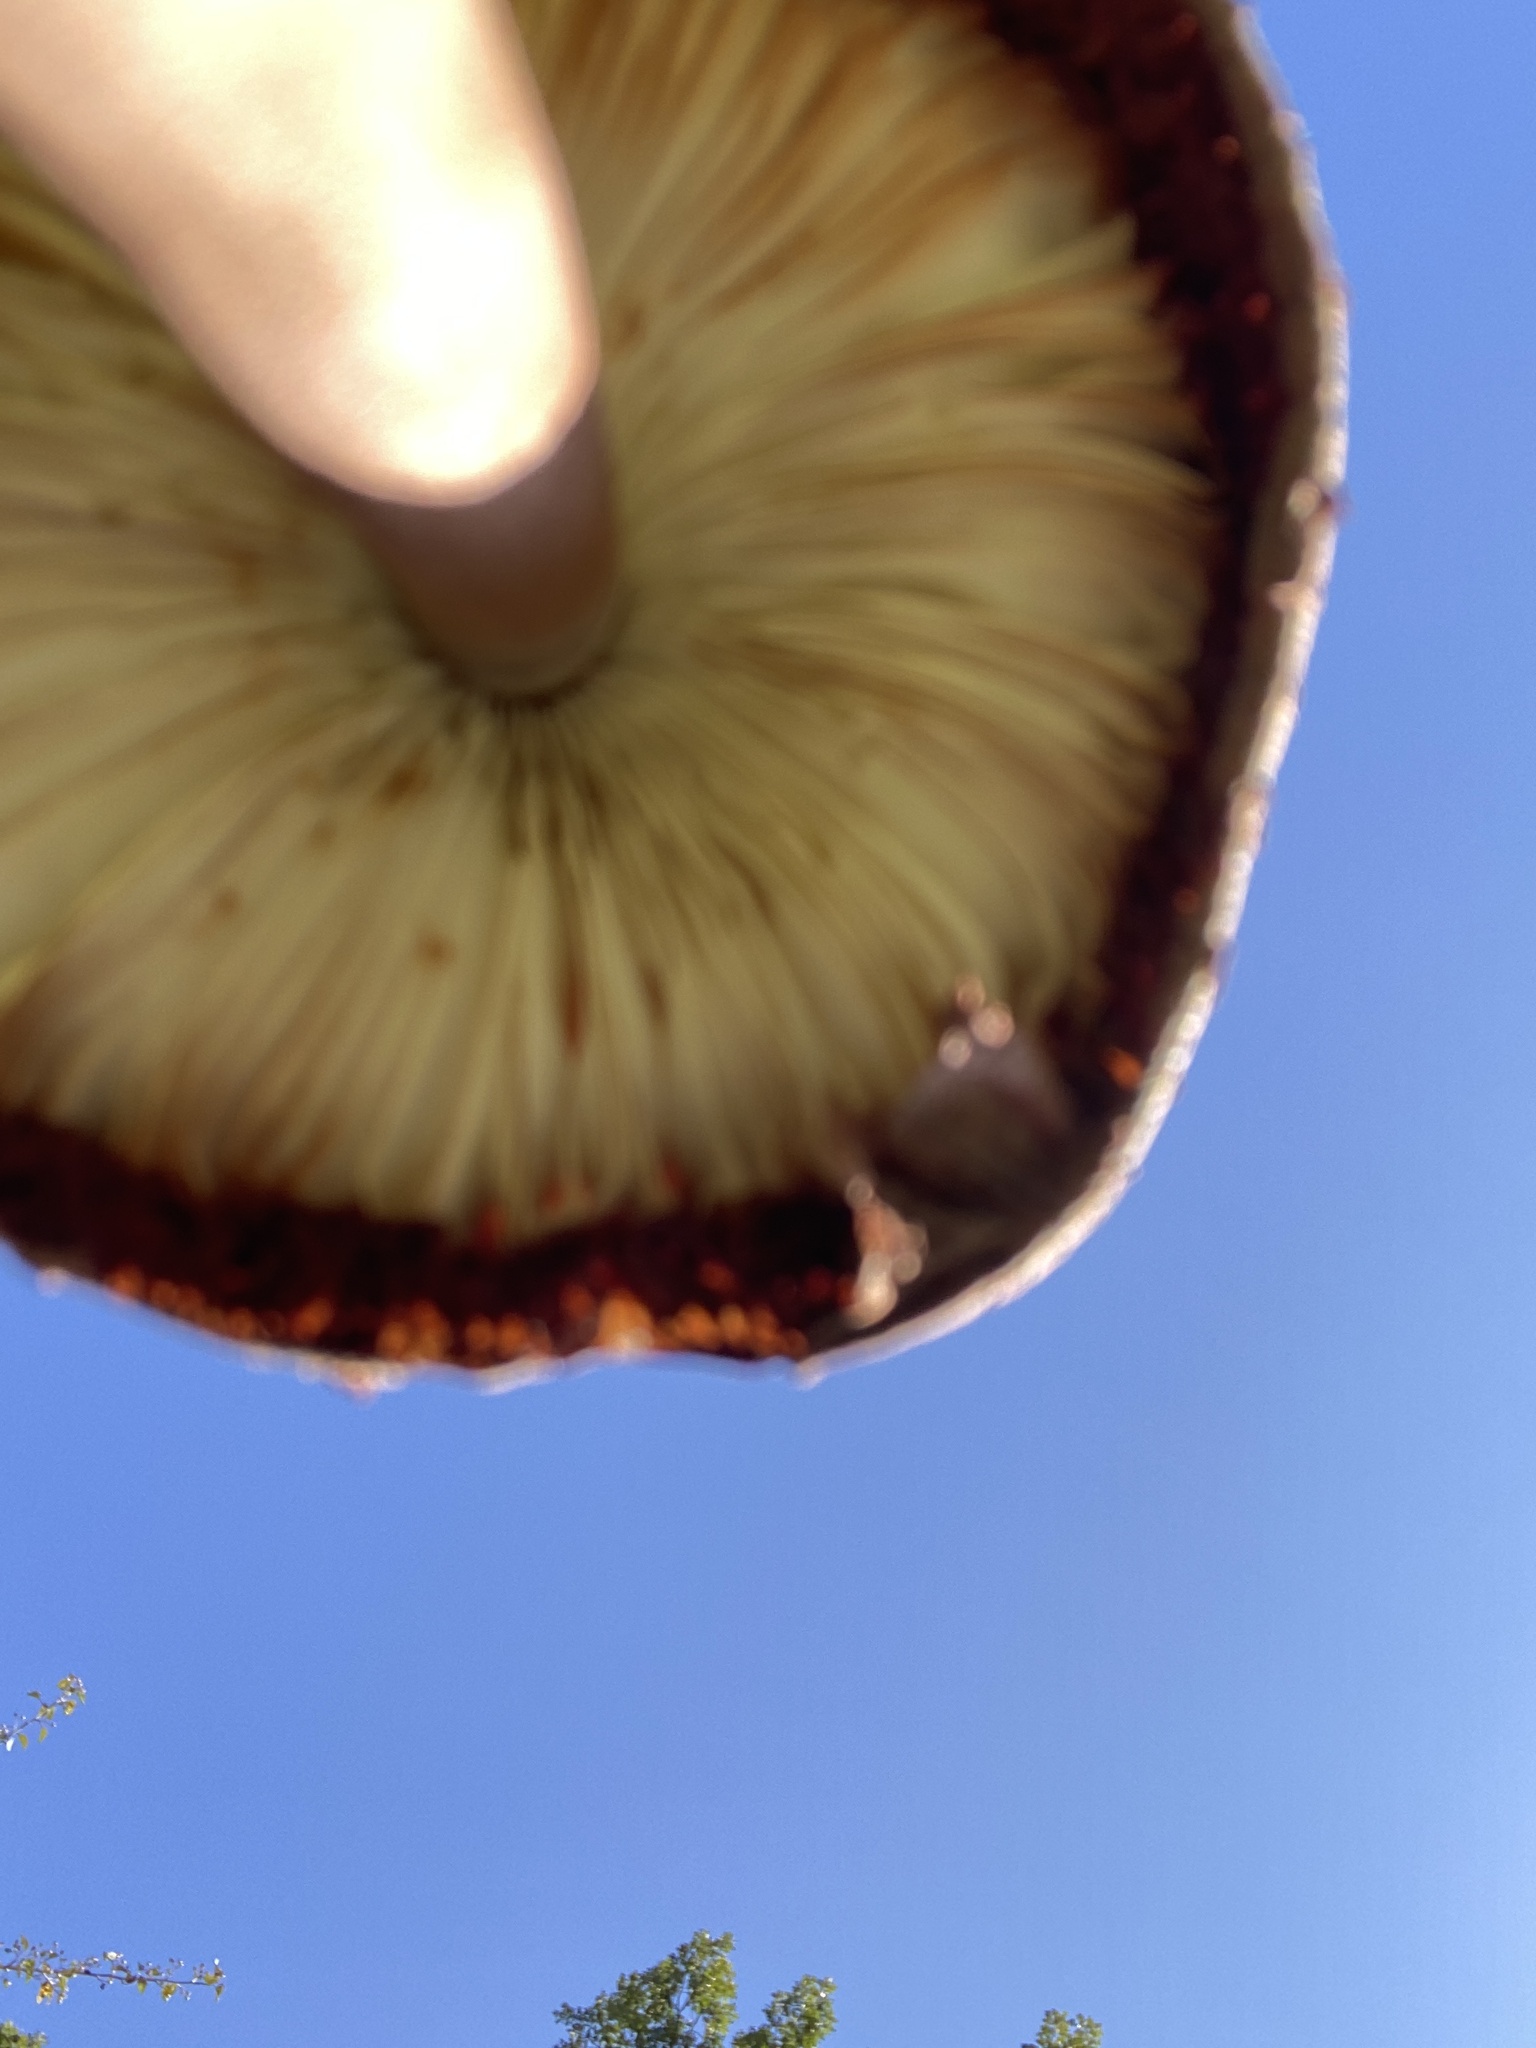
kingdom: Fungi
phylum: Basidiomycota
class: Agaricomycetes
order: Agaricales
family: Agaricaceae
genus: Leucoagaricus
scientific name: Leucoagaricus americanus
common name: Reddening lepiota
